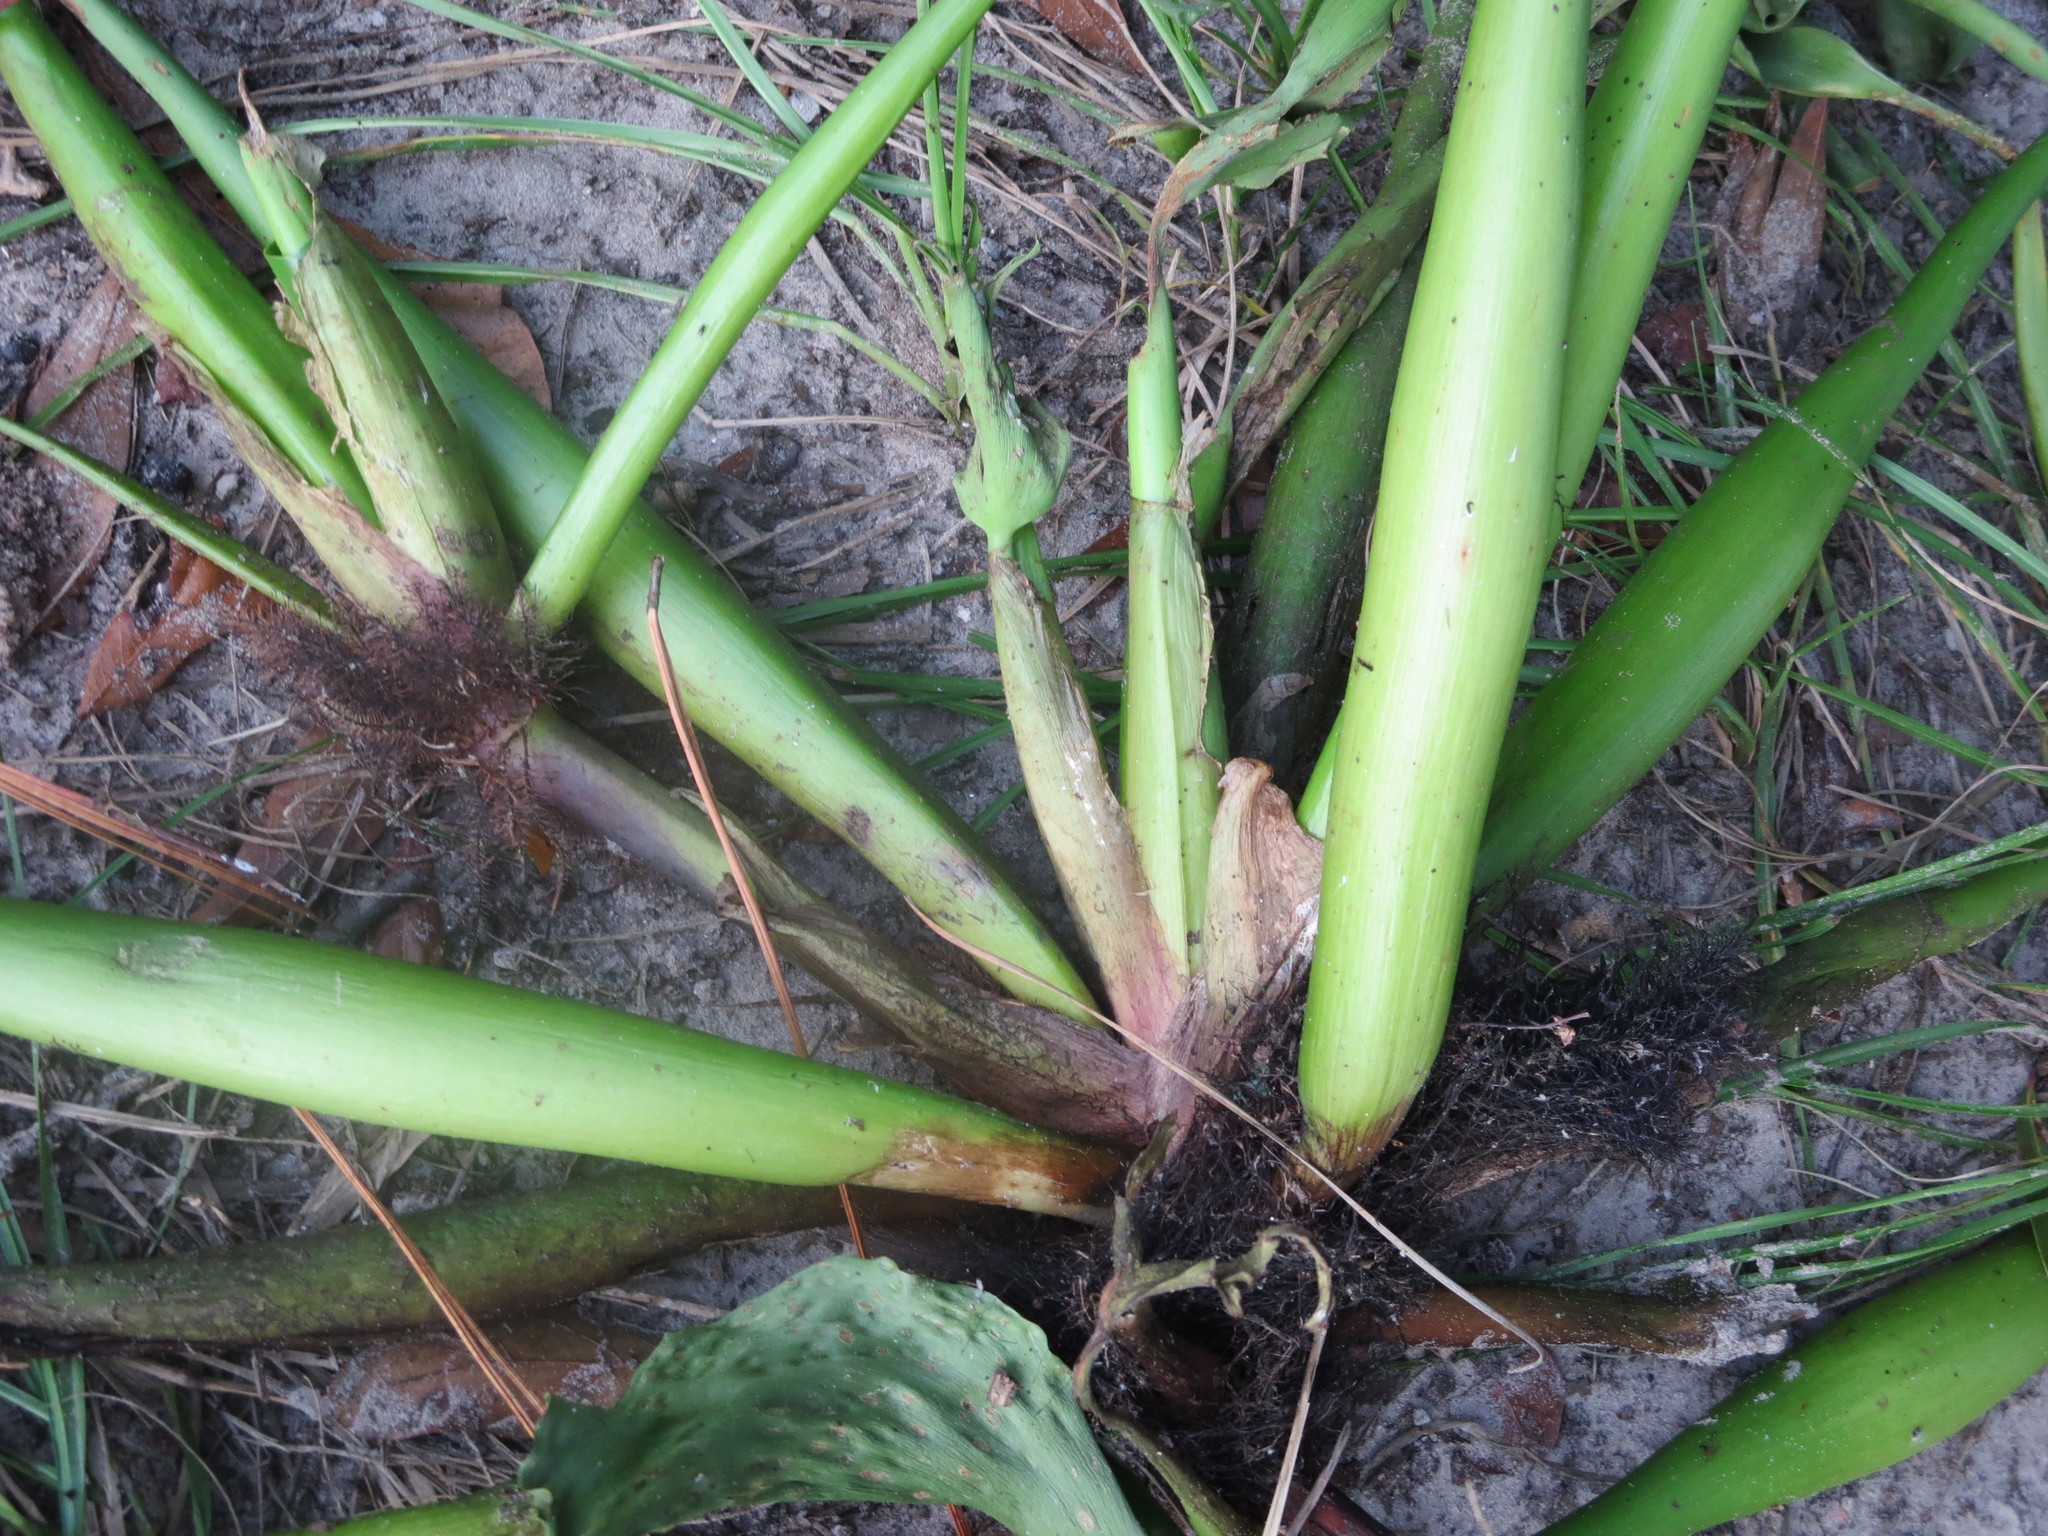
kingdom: Plantae
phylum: Tracheophyta
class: Liliopsida
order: Commelinales
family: Pontederiaceae
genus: Pontederia
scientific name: Pontederia crassipes
